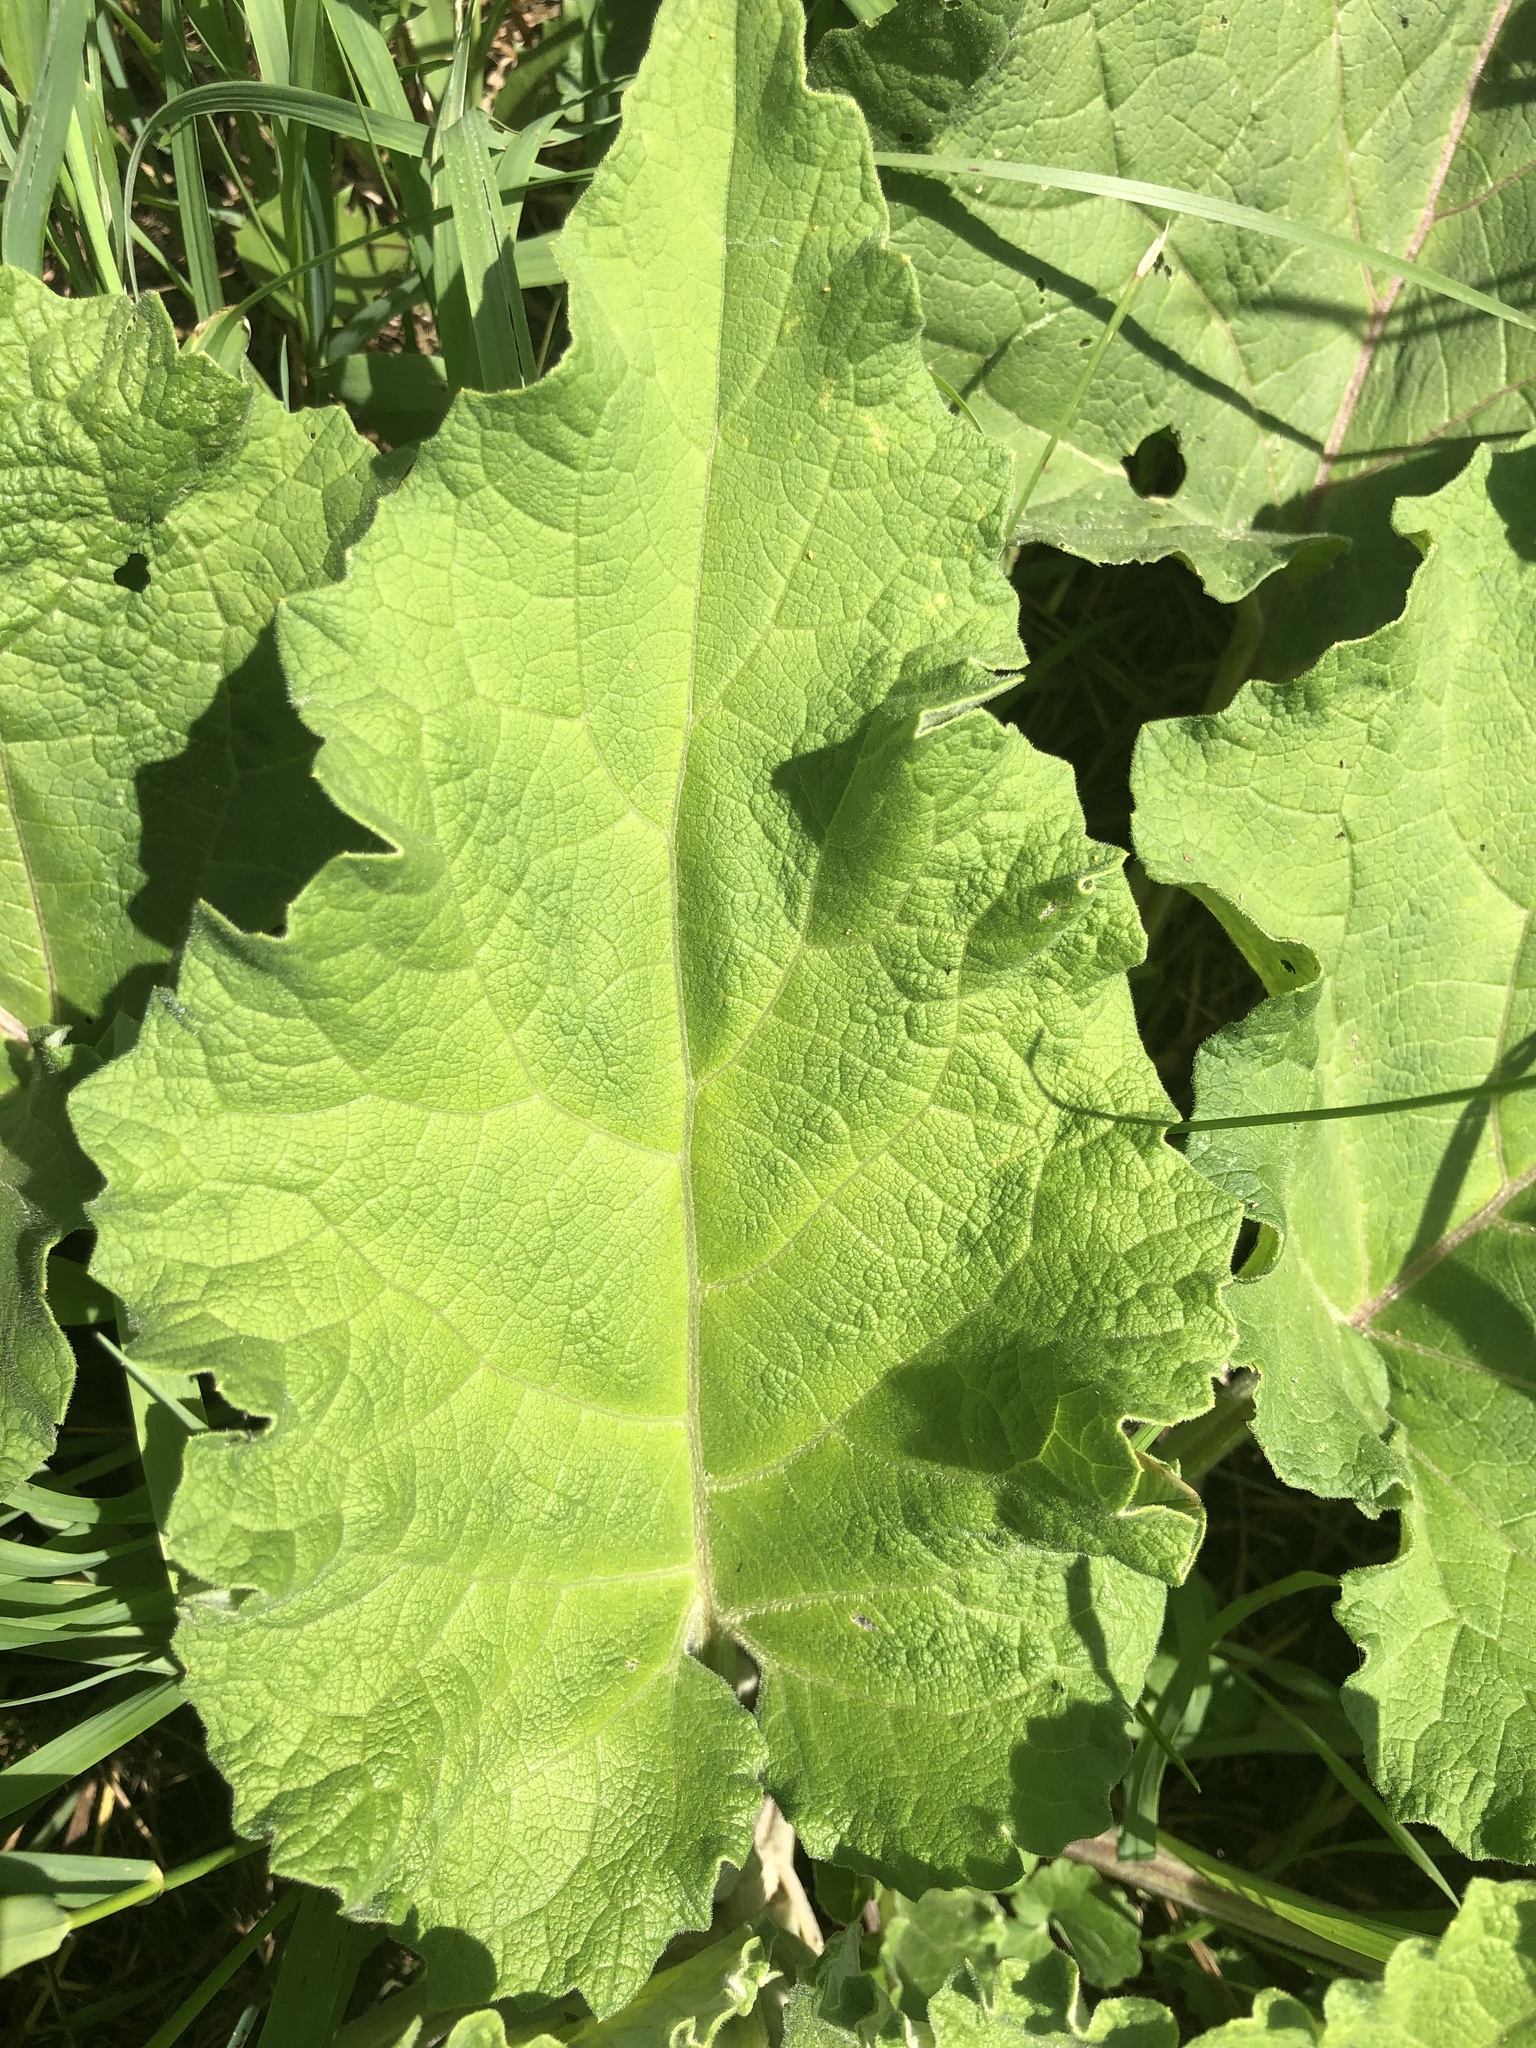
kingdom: Plantae
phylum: Tracheophyta
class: Magnoliopsida
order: Asterales
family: Asteraceae
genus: Arctium
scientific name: Arctium
